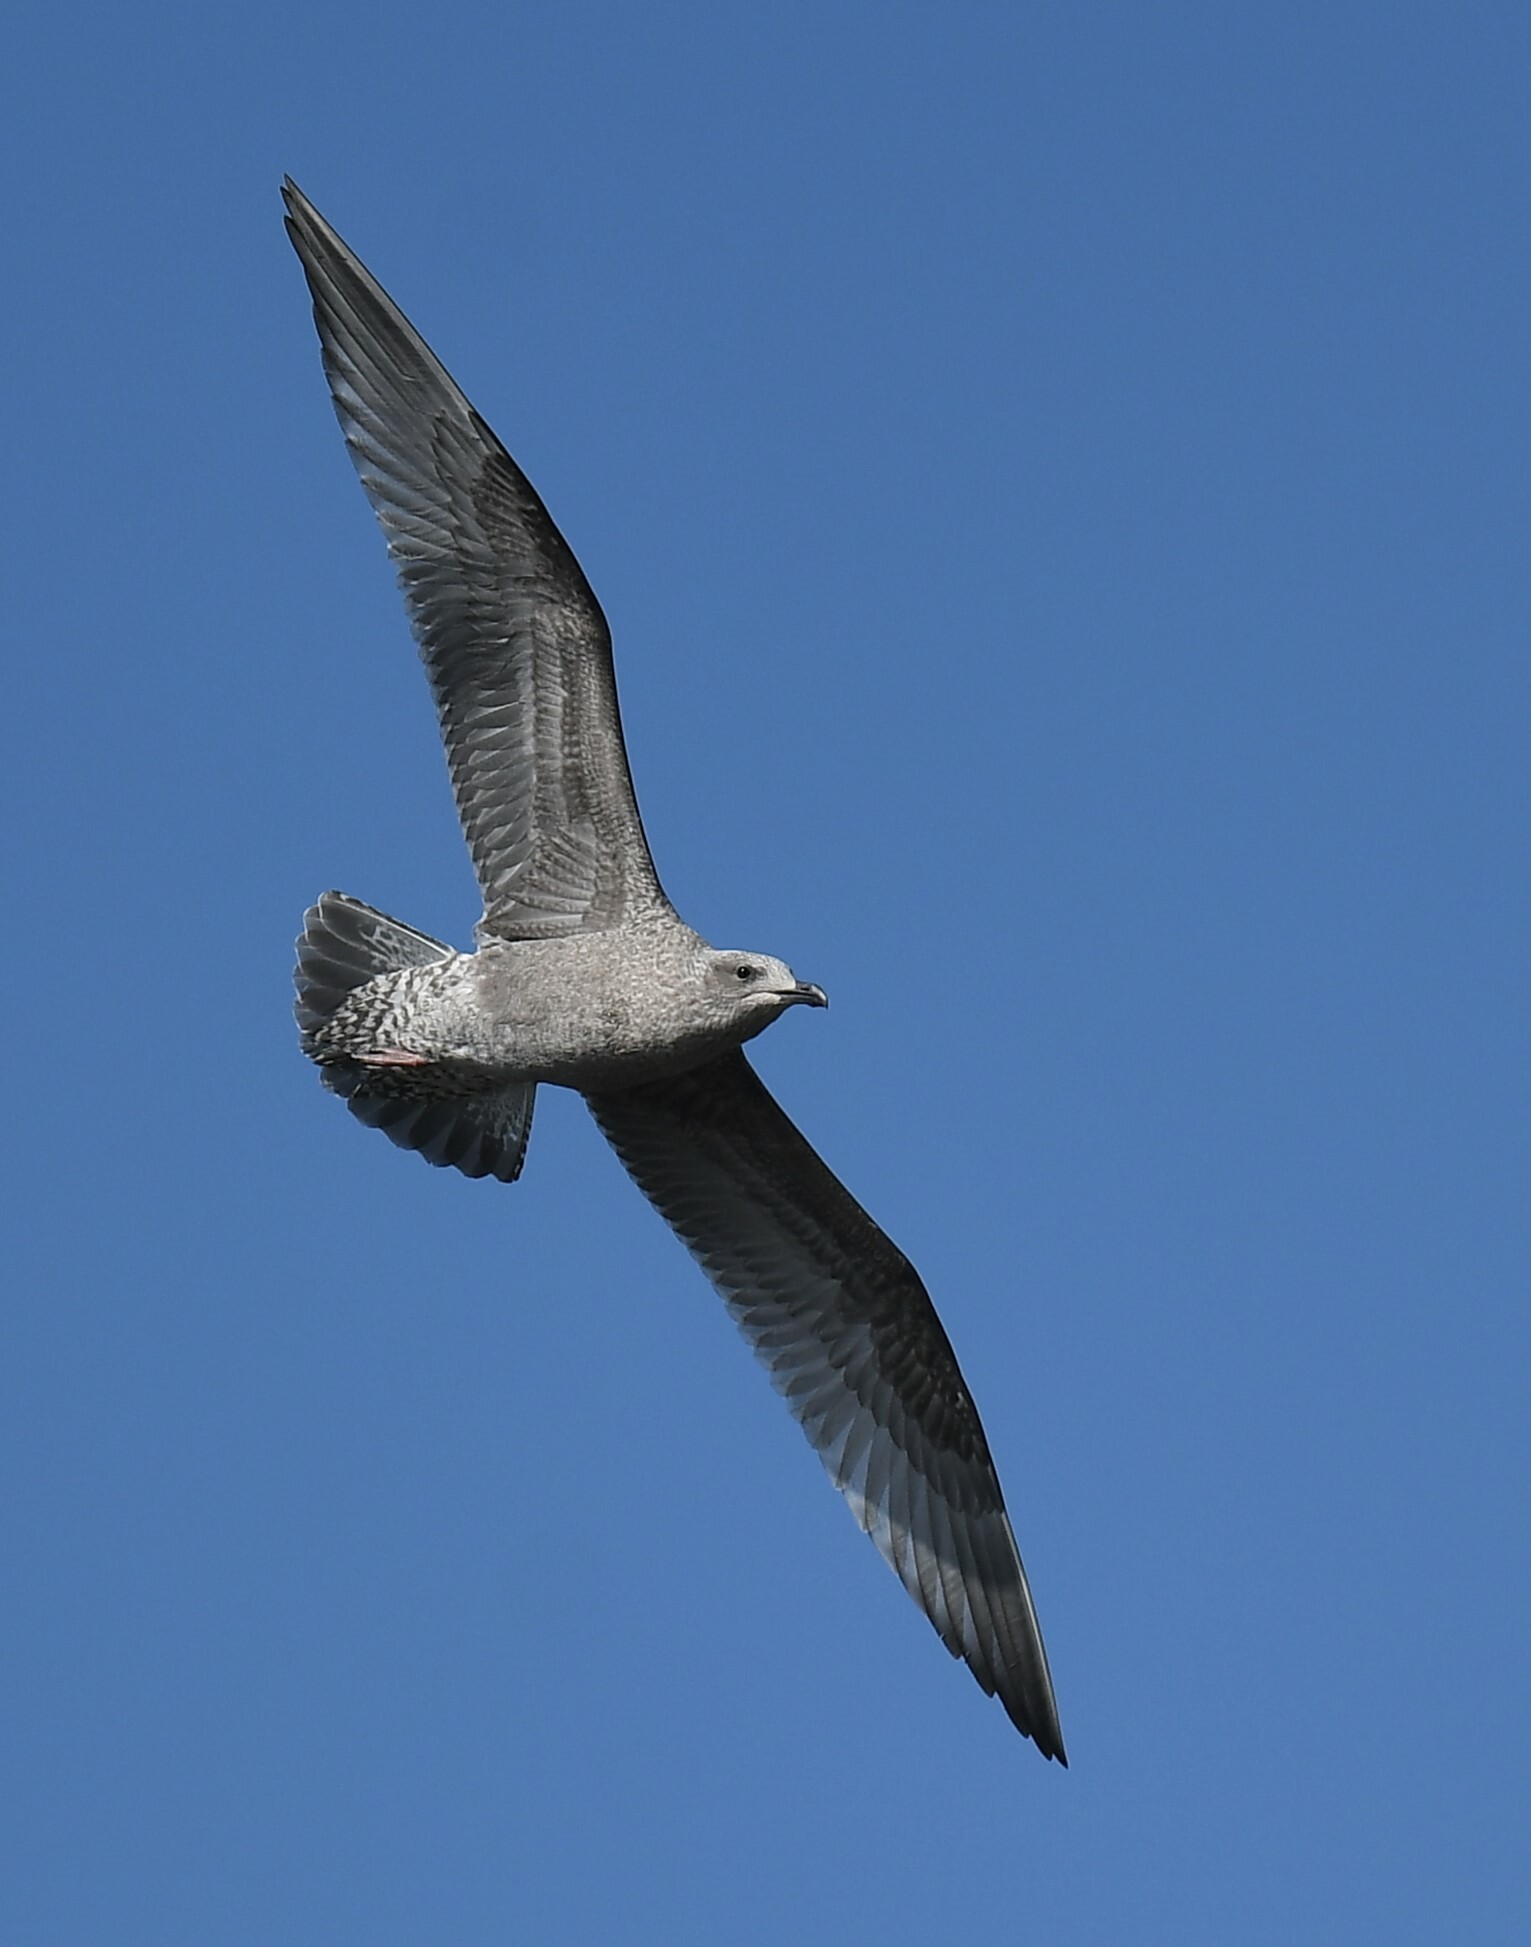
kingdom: Animalia
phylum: Chordata
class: Aves
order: Charadriiformes
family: Laridae
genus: Larus
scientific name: Larus argentatus
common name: Herring gull
